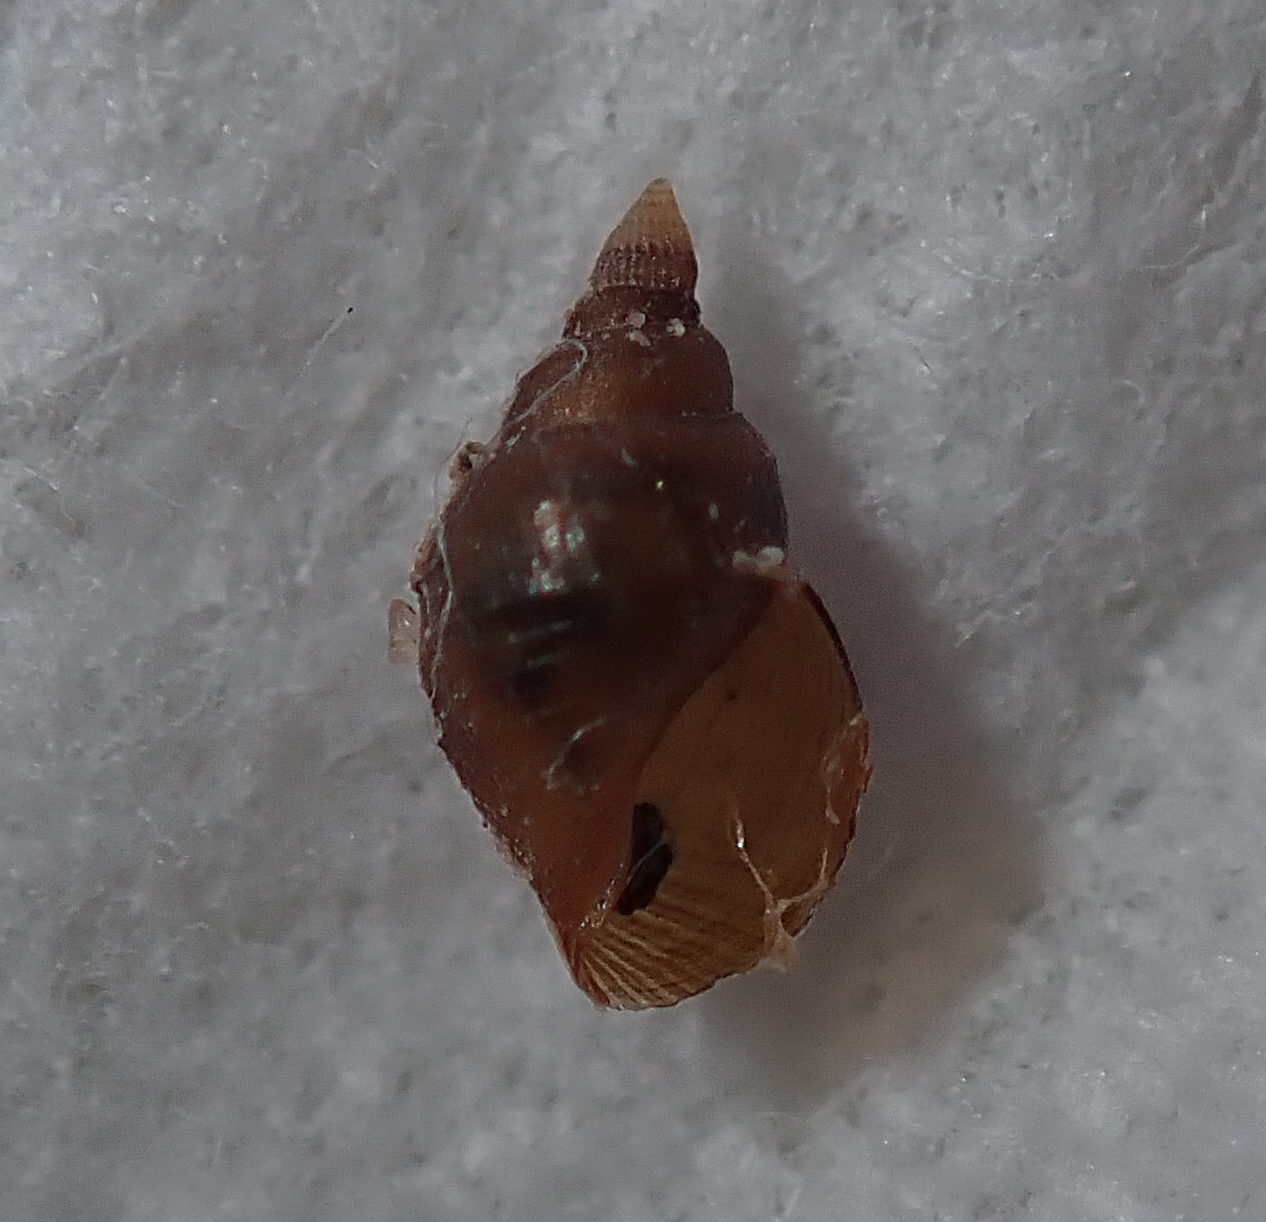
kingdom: Animalia
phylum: Mollusca
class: Gastropoda
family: Litiopidae
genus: Litiopa
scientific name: Litiopa limnophysa
